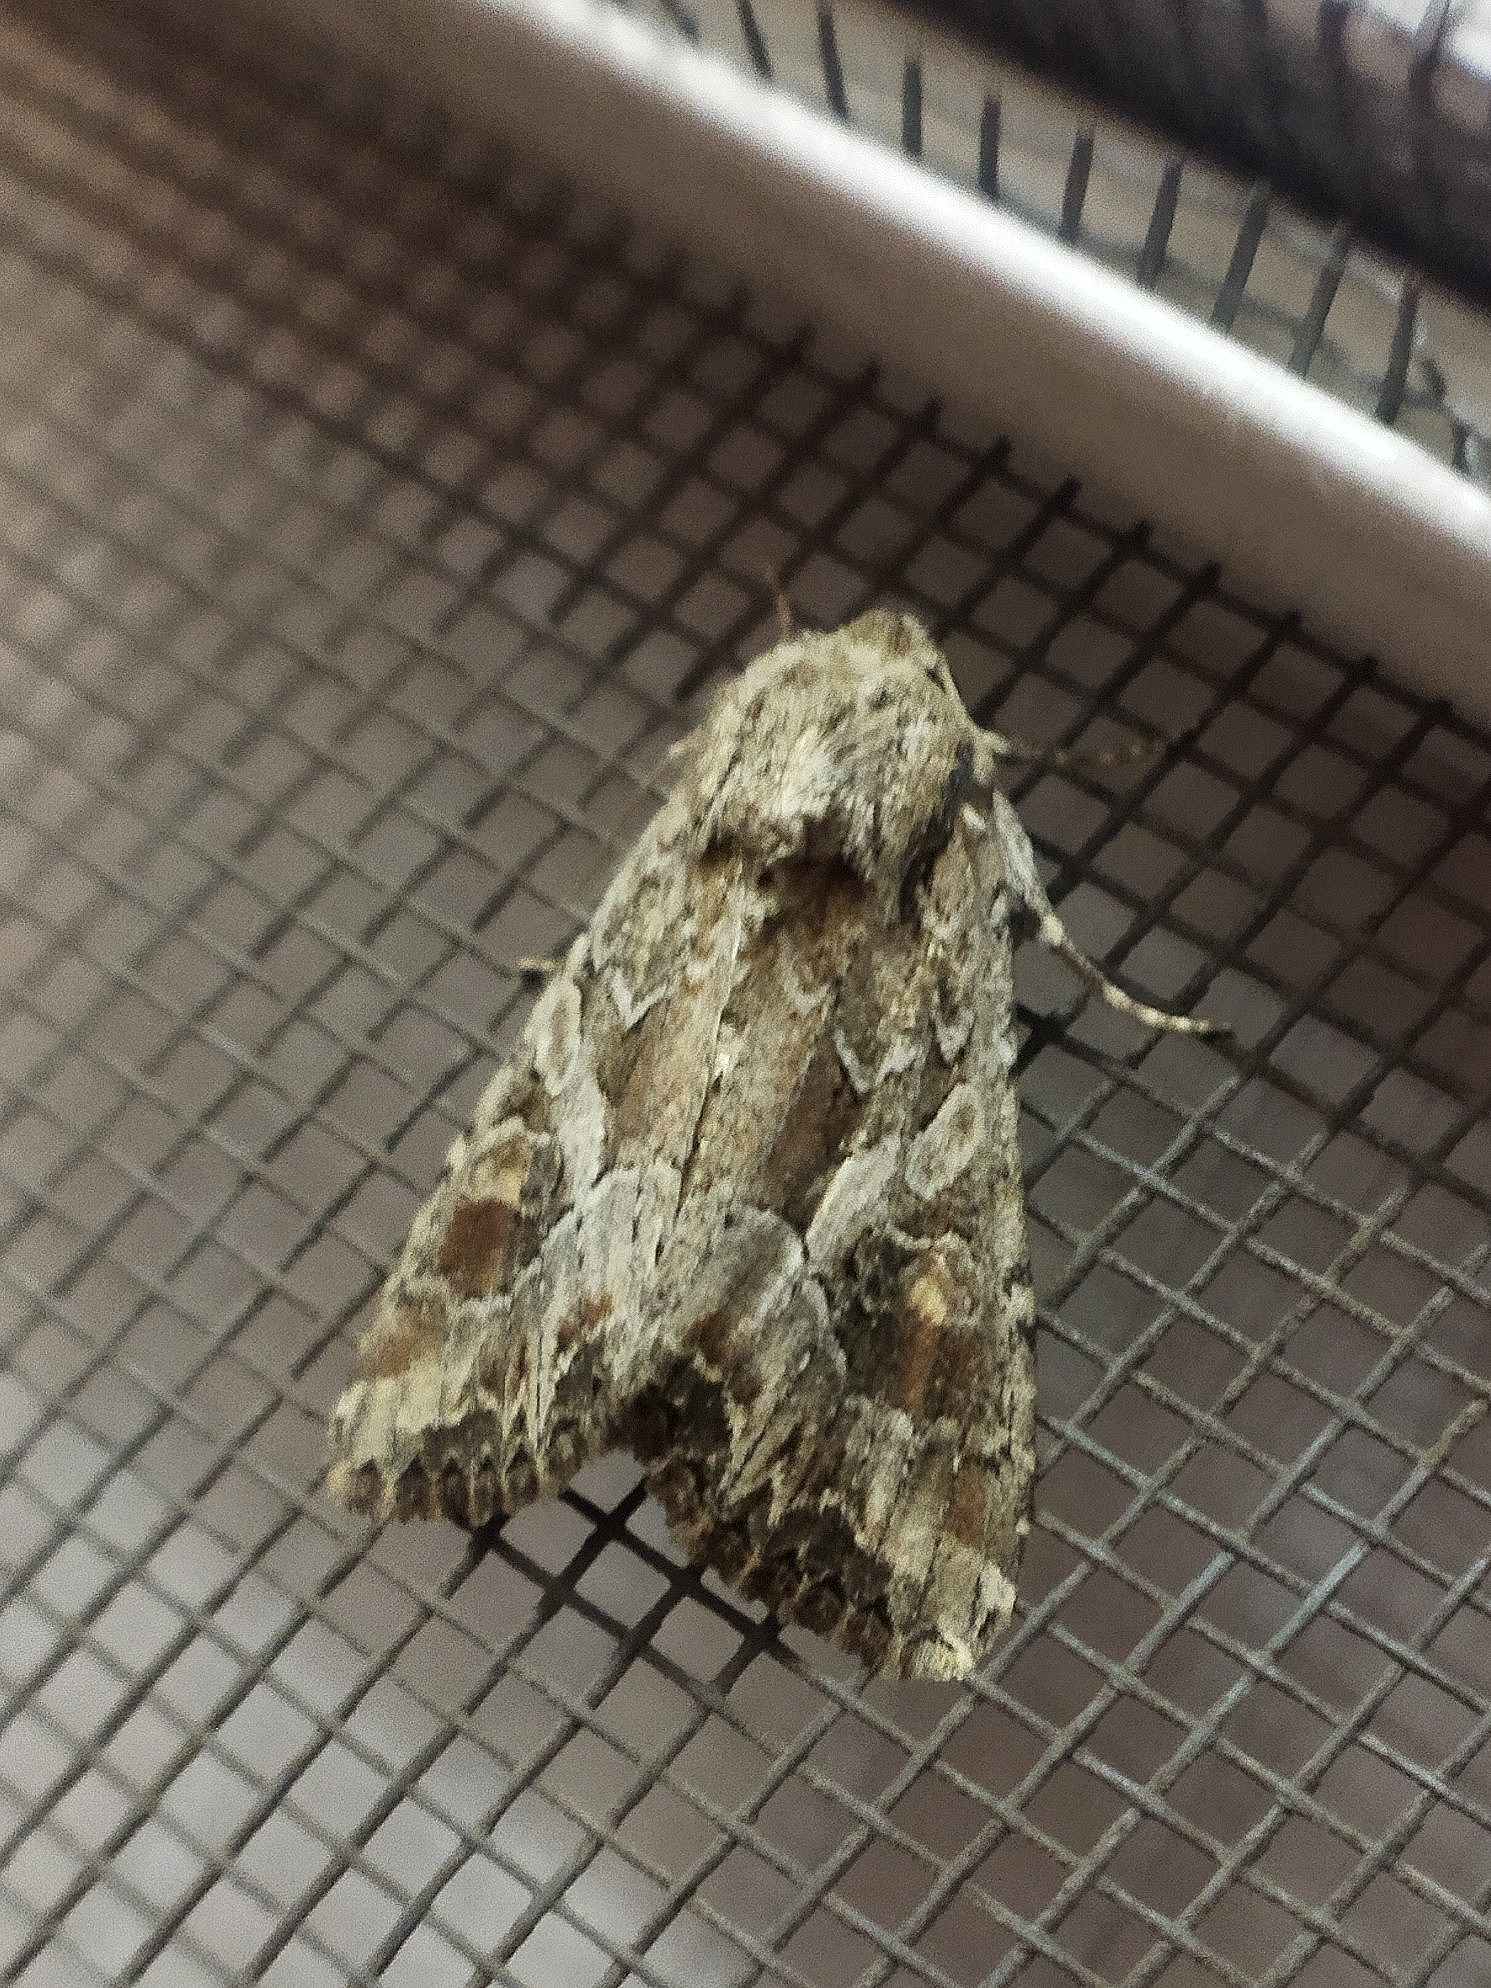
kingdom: Animalia
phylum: Arthropoda
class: Insecta
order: Lepidoptera
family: Noctuidae
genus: Lacanobia
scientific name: Lacanobia blenna
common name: Stranger
